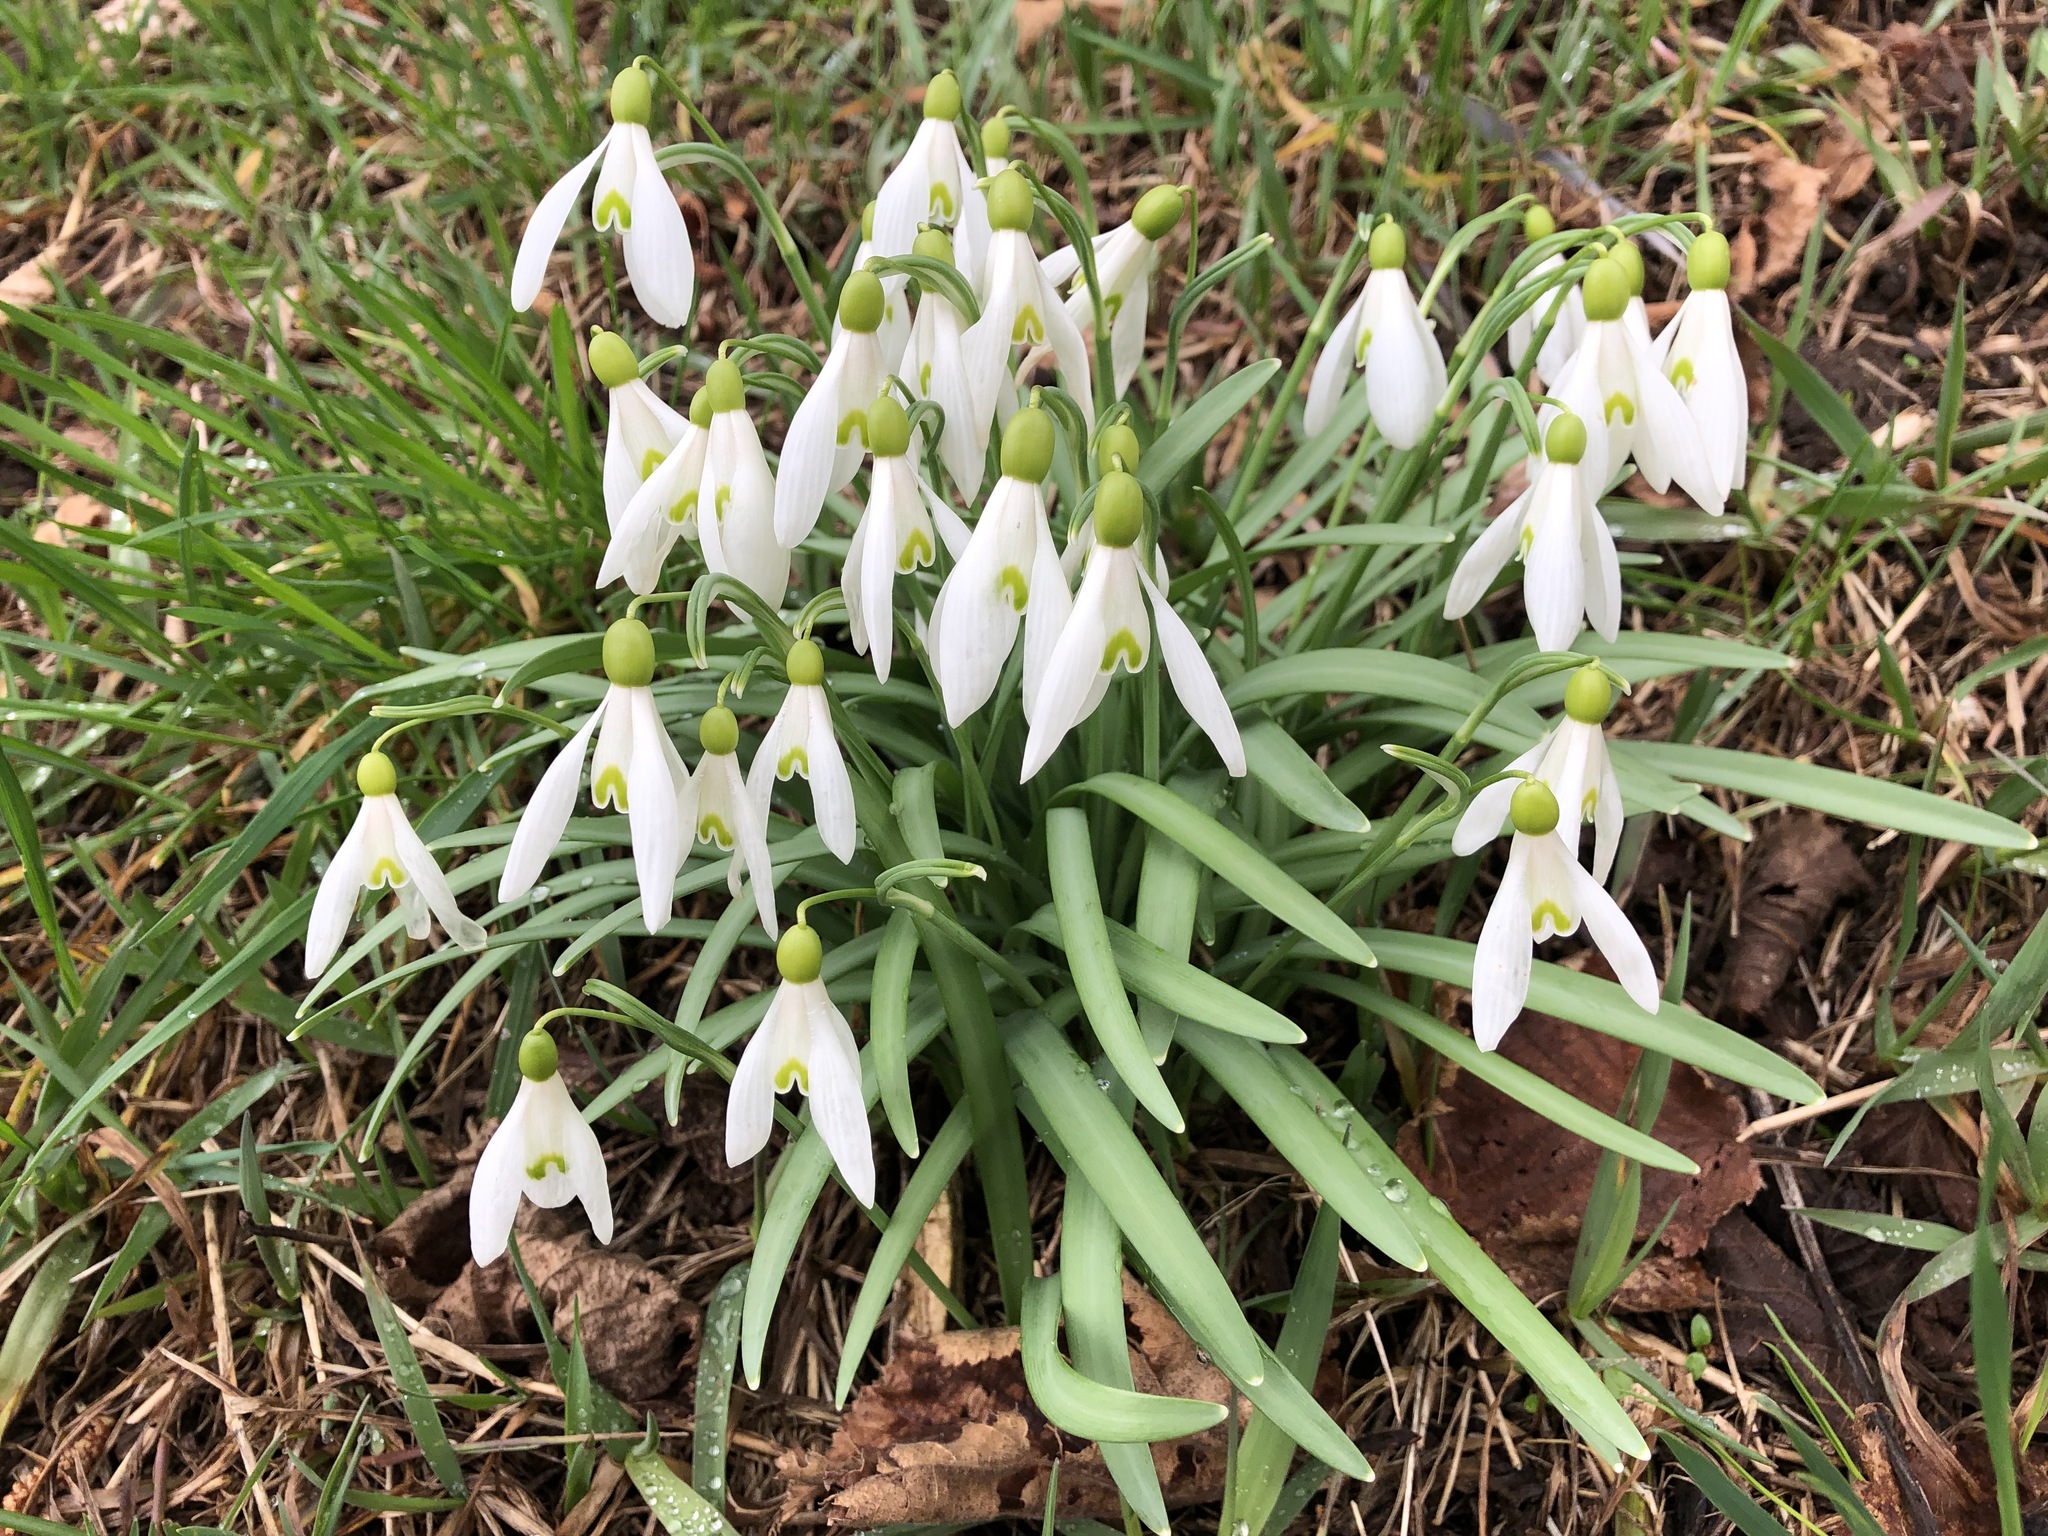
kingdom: Plantae
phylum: Tracheophyta
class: Liliopsida
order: Asparagales
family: Amaryllidaceae
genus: Galanthus
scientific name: Galanthus nivalis
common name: Snowdrop
